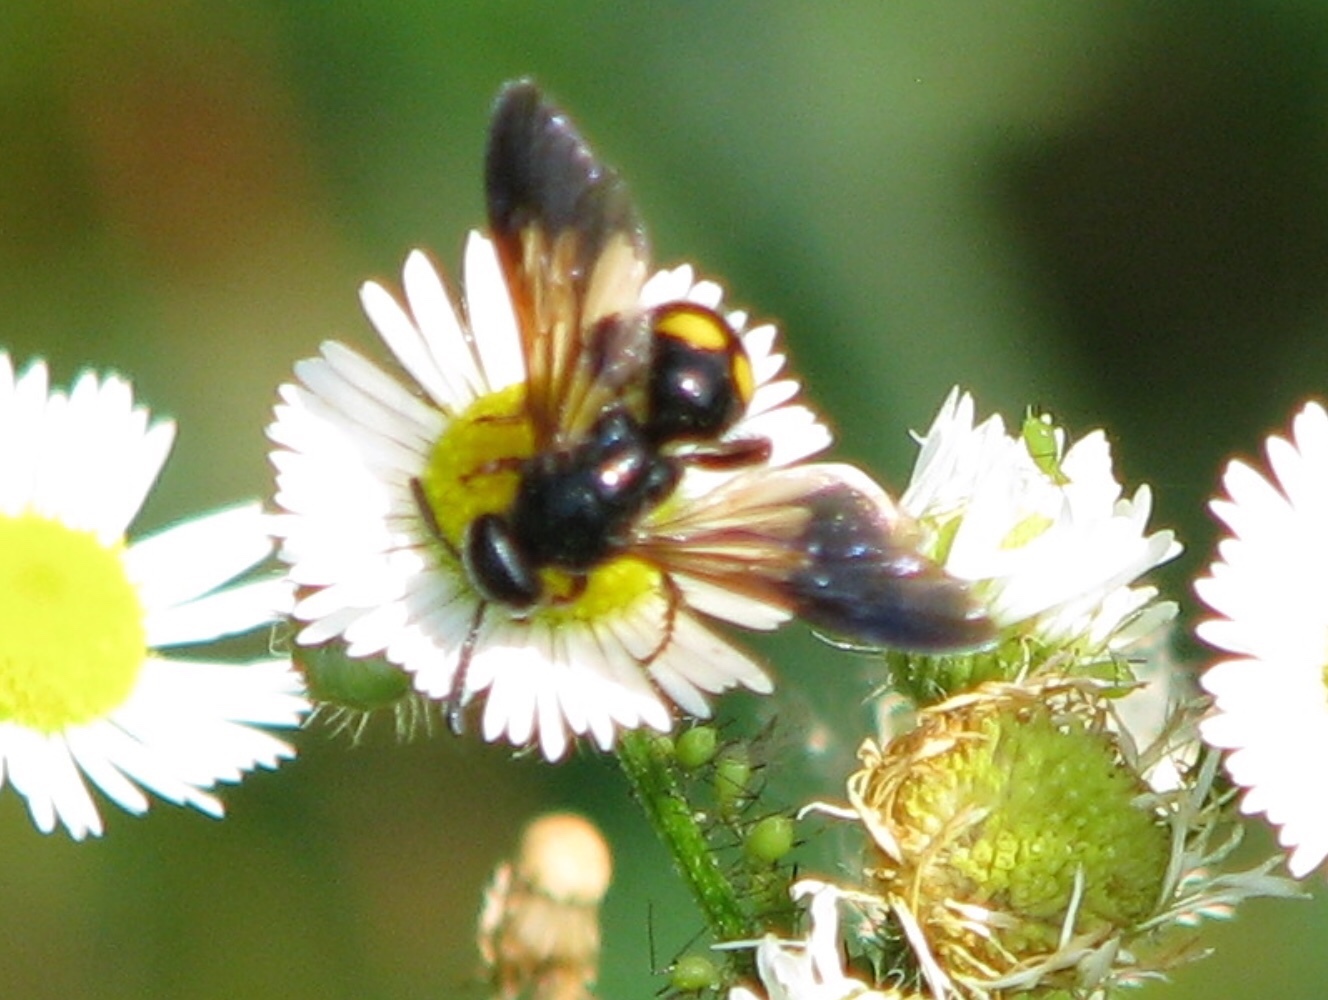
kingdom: Animalia
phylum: Arthropoda
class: Insecta
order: Hymenoptera
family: Scoliidae
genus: Scolia
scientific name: Scolia nobilitata
